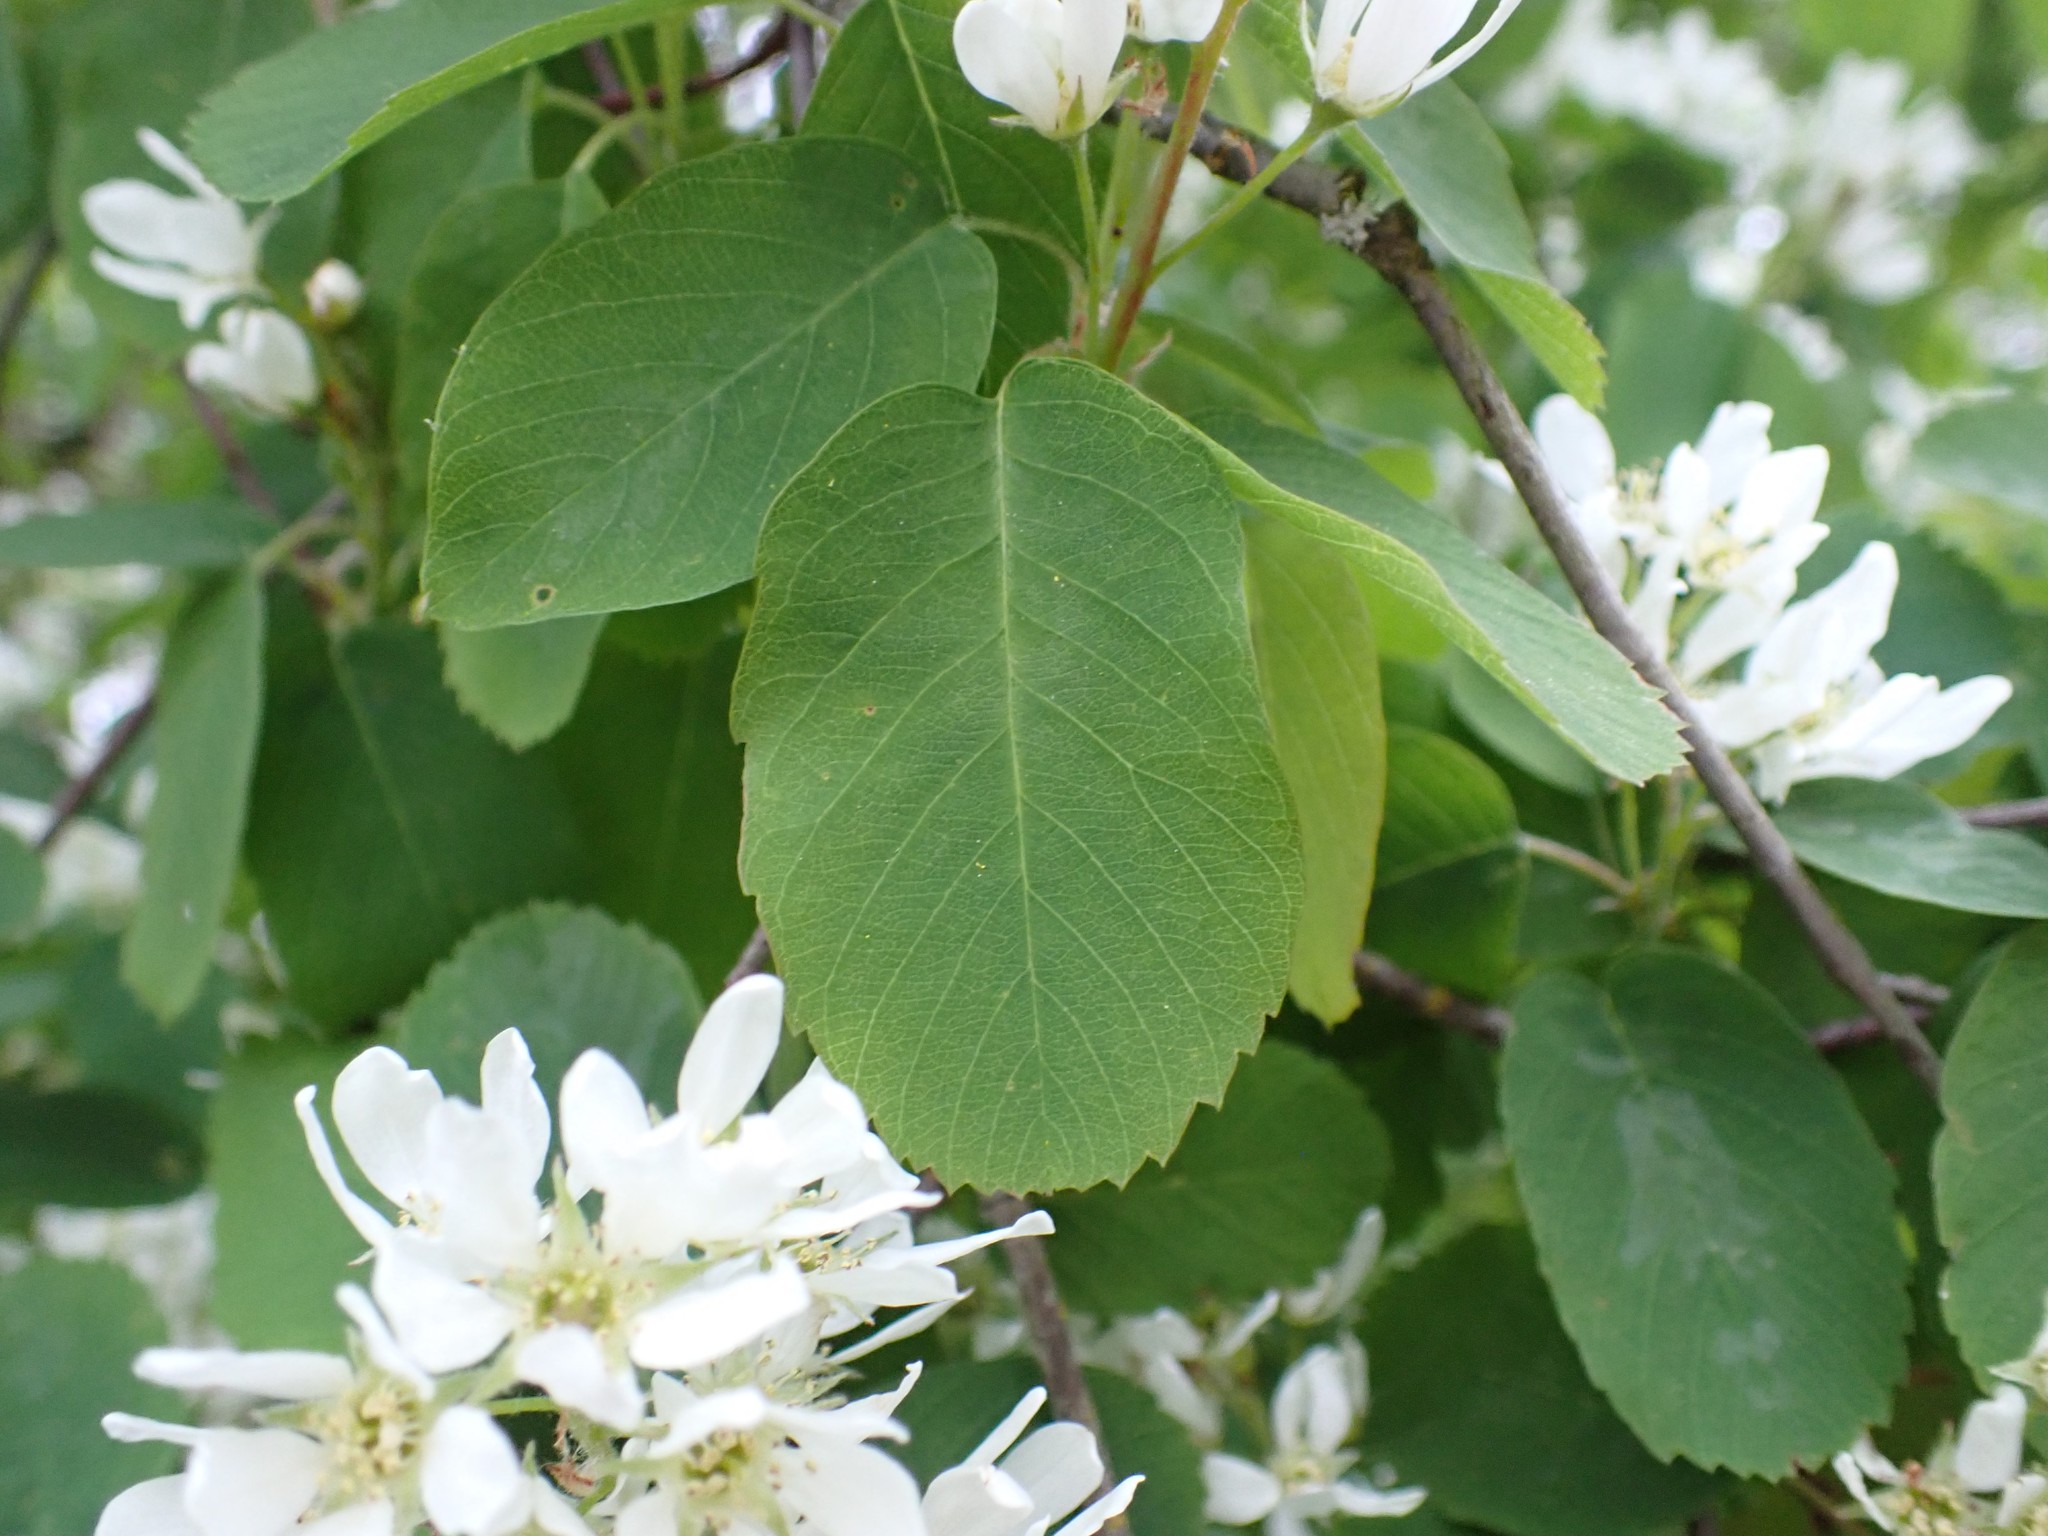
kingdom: Plantae
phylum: Tracheophyta
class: Magnoliopsida
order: Rosales
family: Rosaceae
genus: Amelanchier
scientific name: Amelanchier alnifolia
